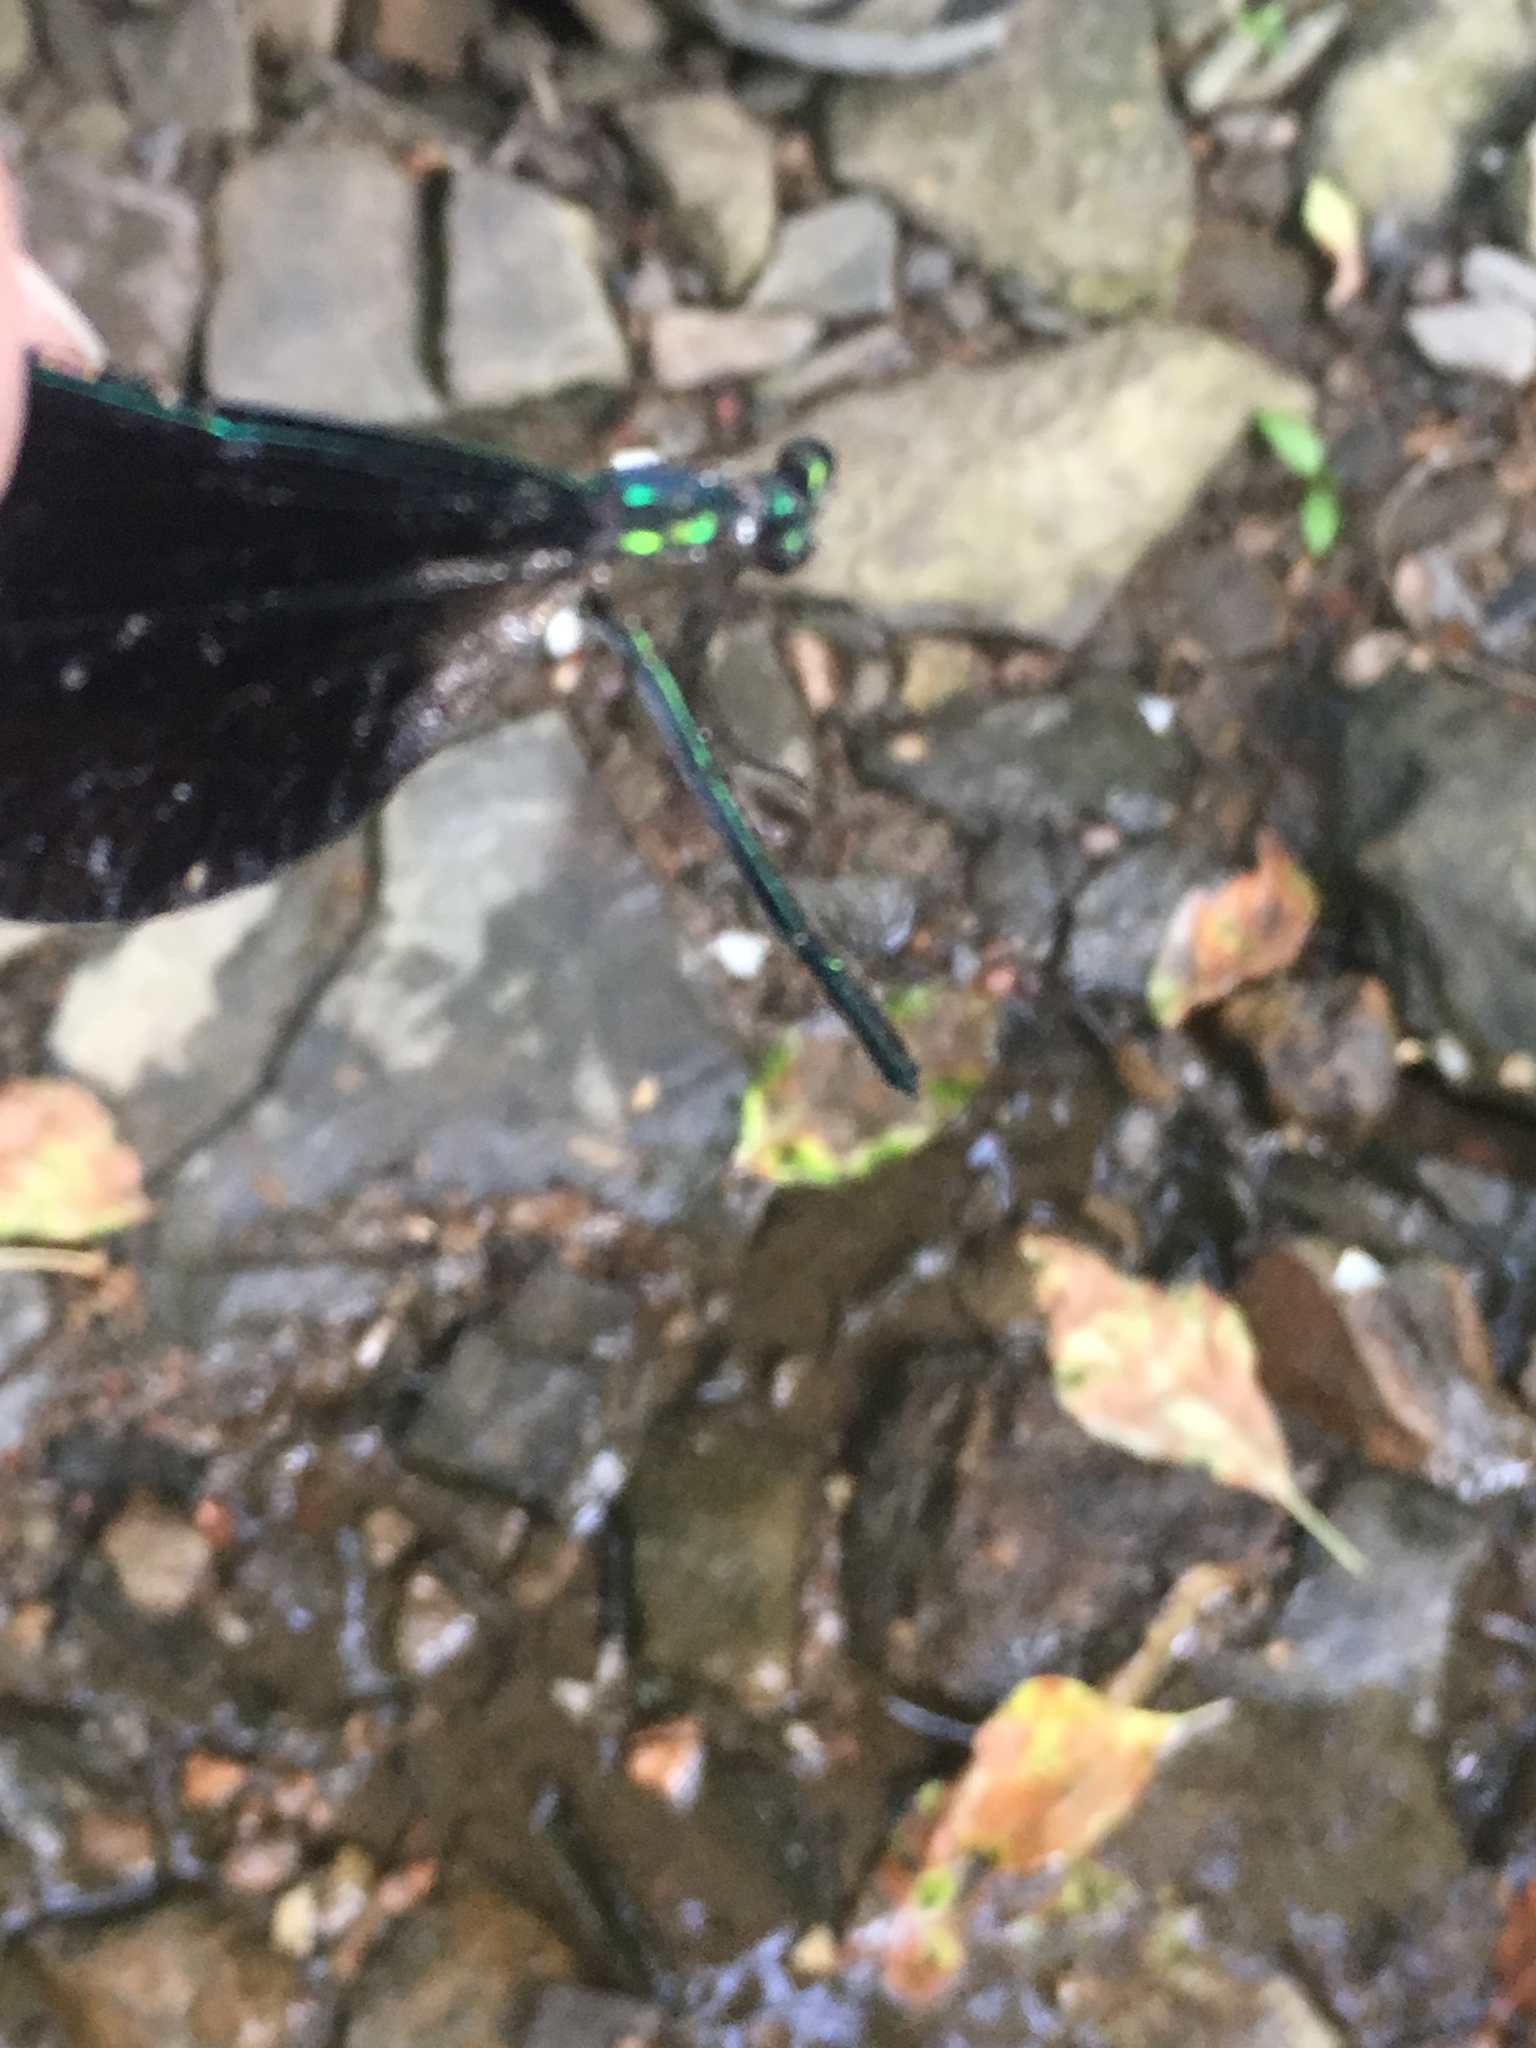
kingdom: Animalia
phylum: Arthropoda
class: Insecta
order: Odonata
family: Calopterygidae
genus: Calopteryx
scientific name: Calopteryx maculata
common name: Ebony jewelwing
